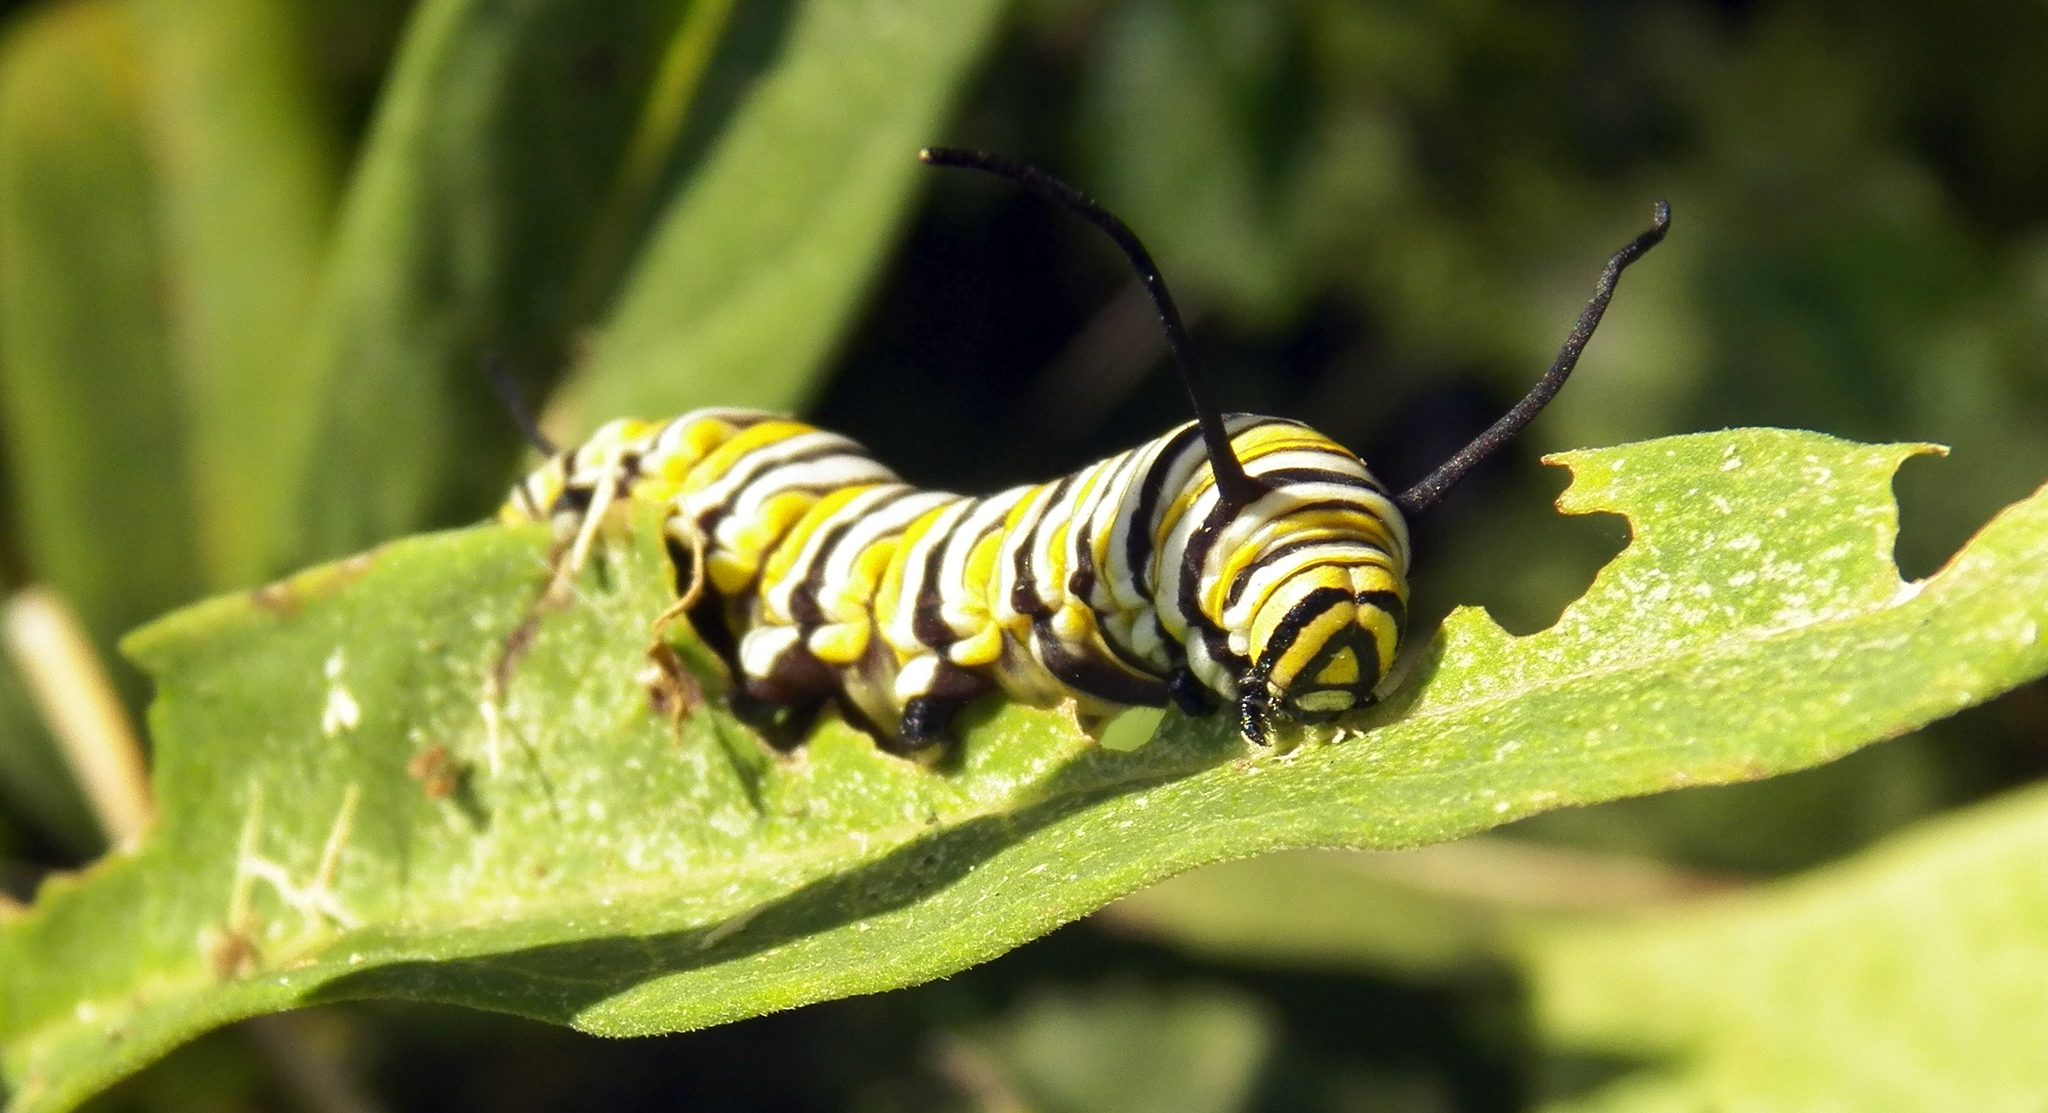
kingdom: Animalia
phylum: Arthropoda
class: Insecta
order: Lepidoptera
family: Nymphalidae
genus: Danaus
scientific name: Danaus plexippus
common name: Monarch
